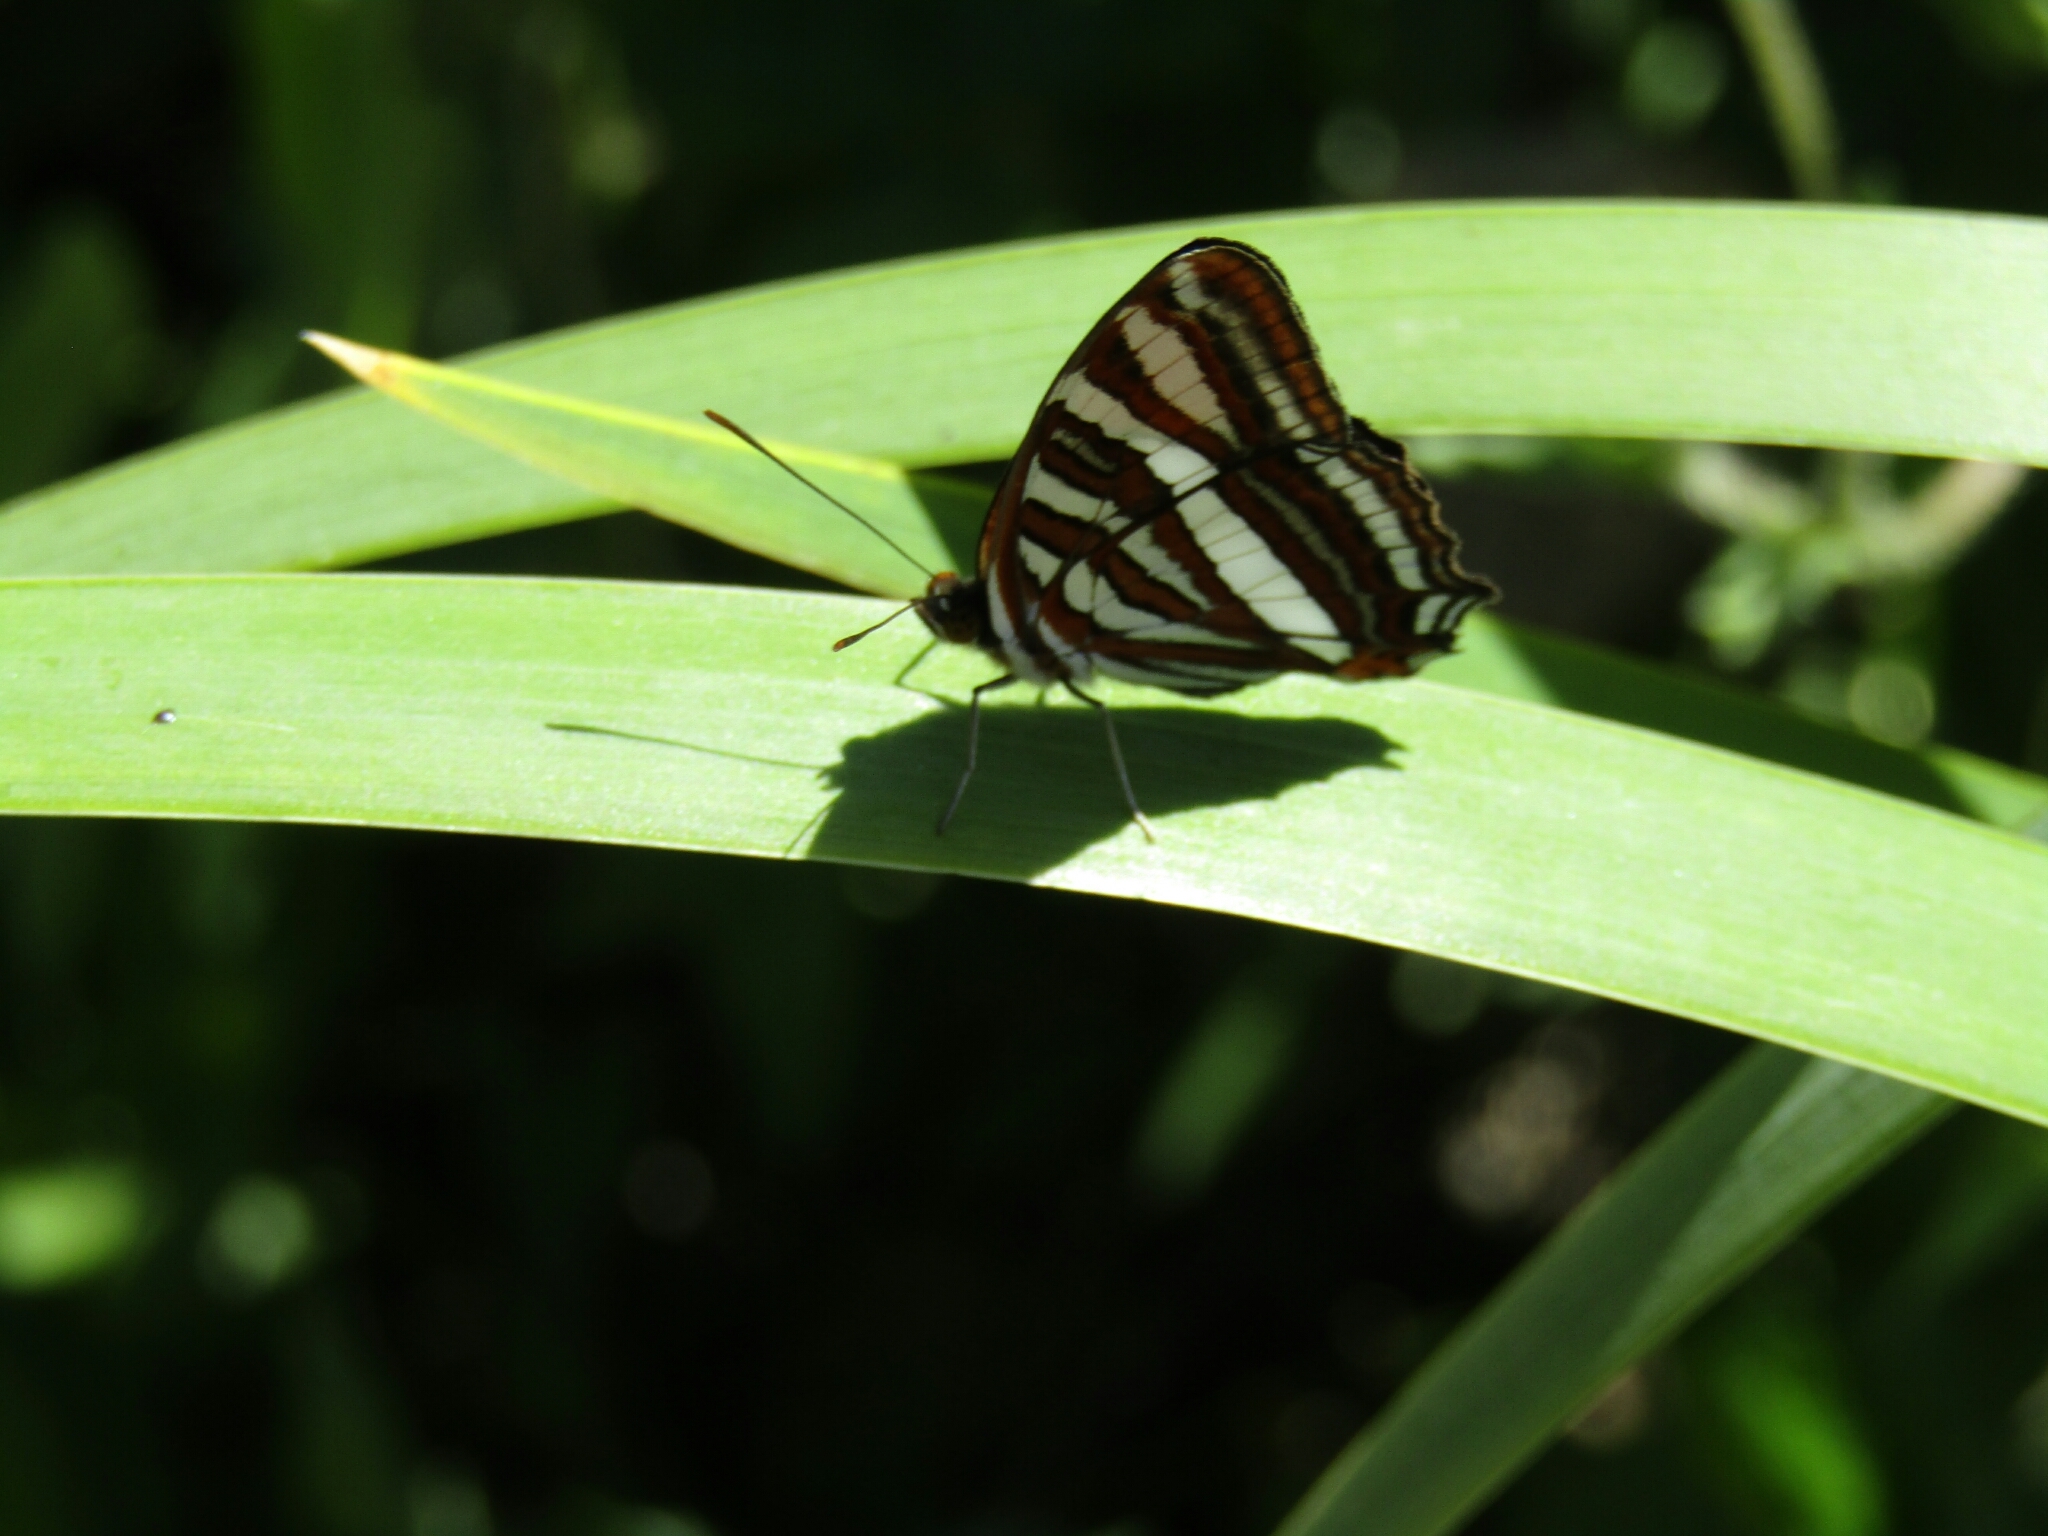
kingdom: Animalia
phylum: Arthropoda
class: Insecta
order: Lepidoptera
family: Nymphalidae
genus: Limenitis
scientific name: Limenitis syma
